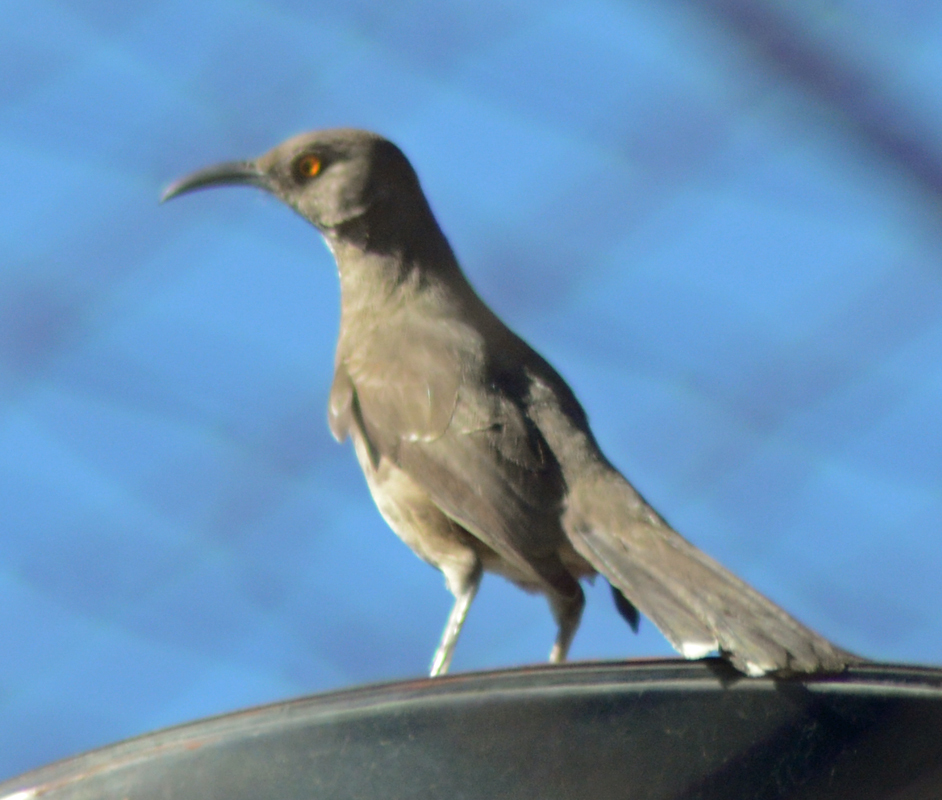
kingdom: Animalia
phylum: Chordata
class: Aves
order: Passeriformes
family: Mimidae
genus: Toxostoma
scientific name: Toxostoma curvirostre
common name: Curve-billed thrasher
